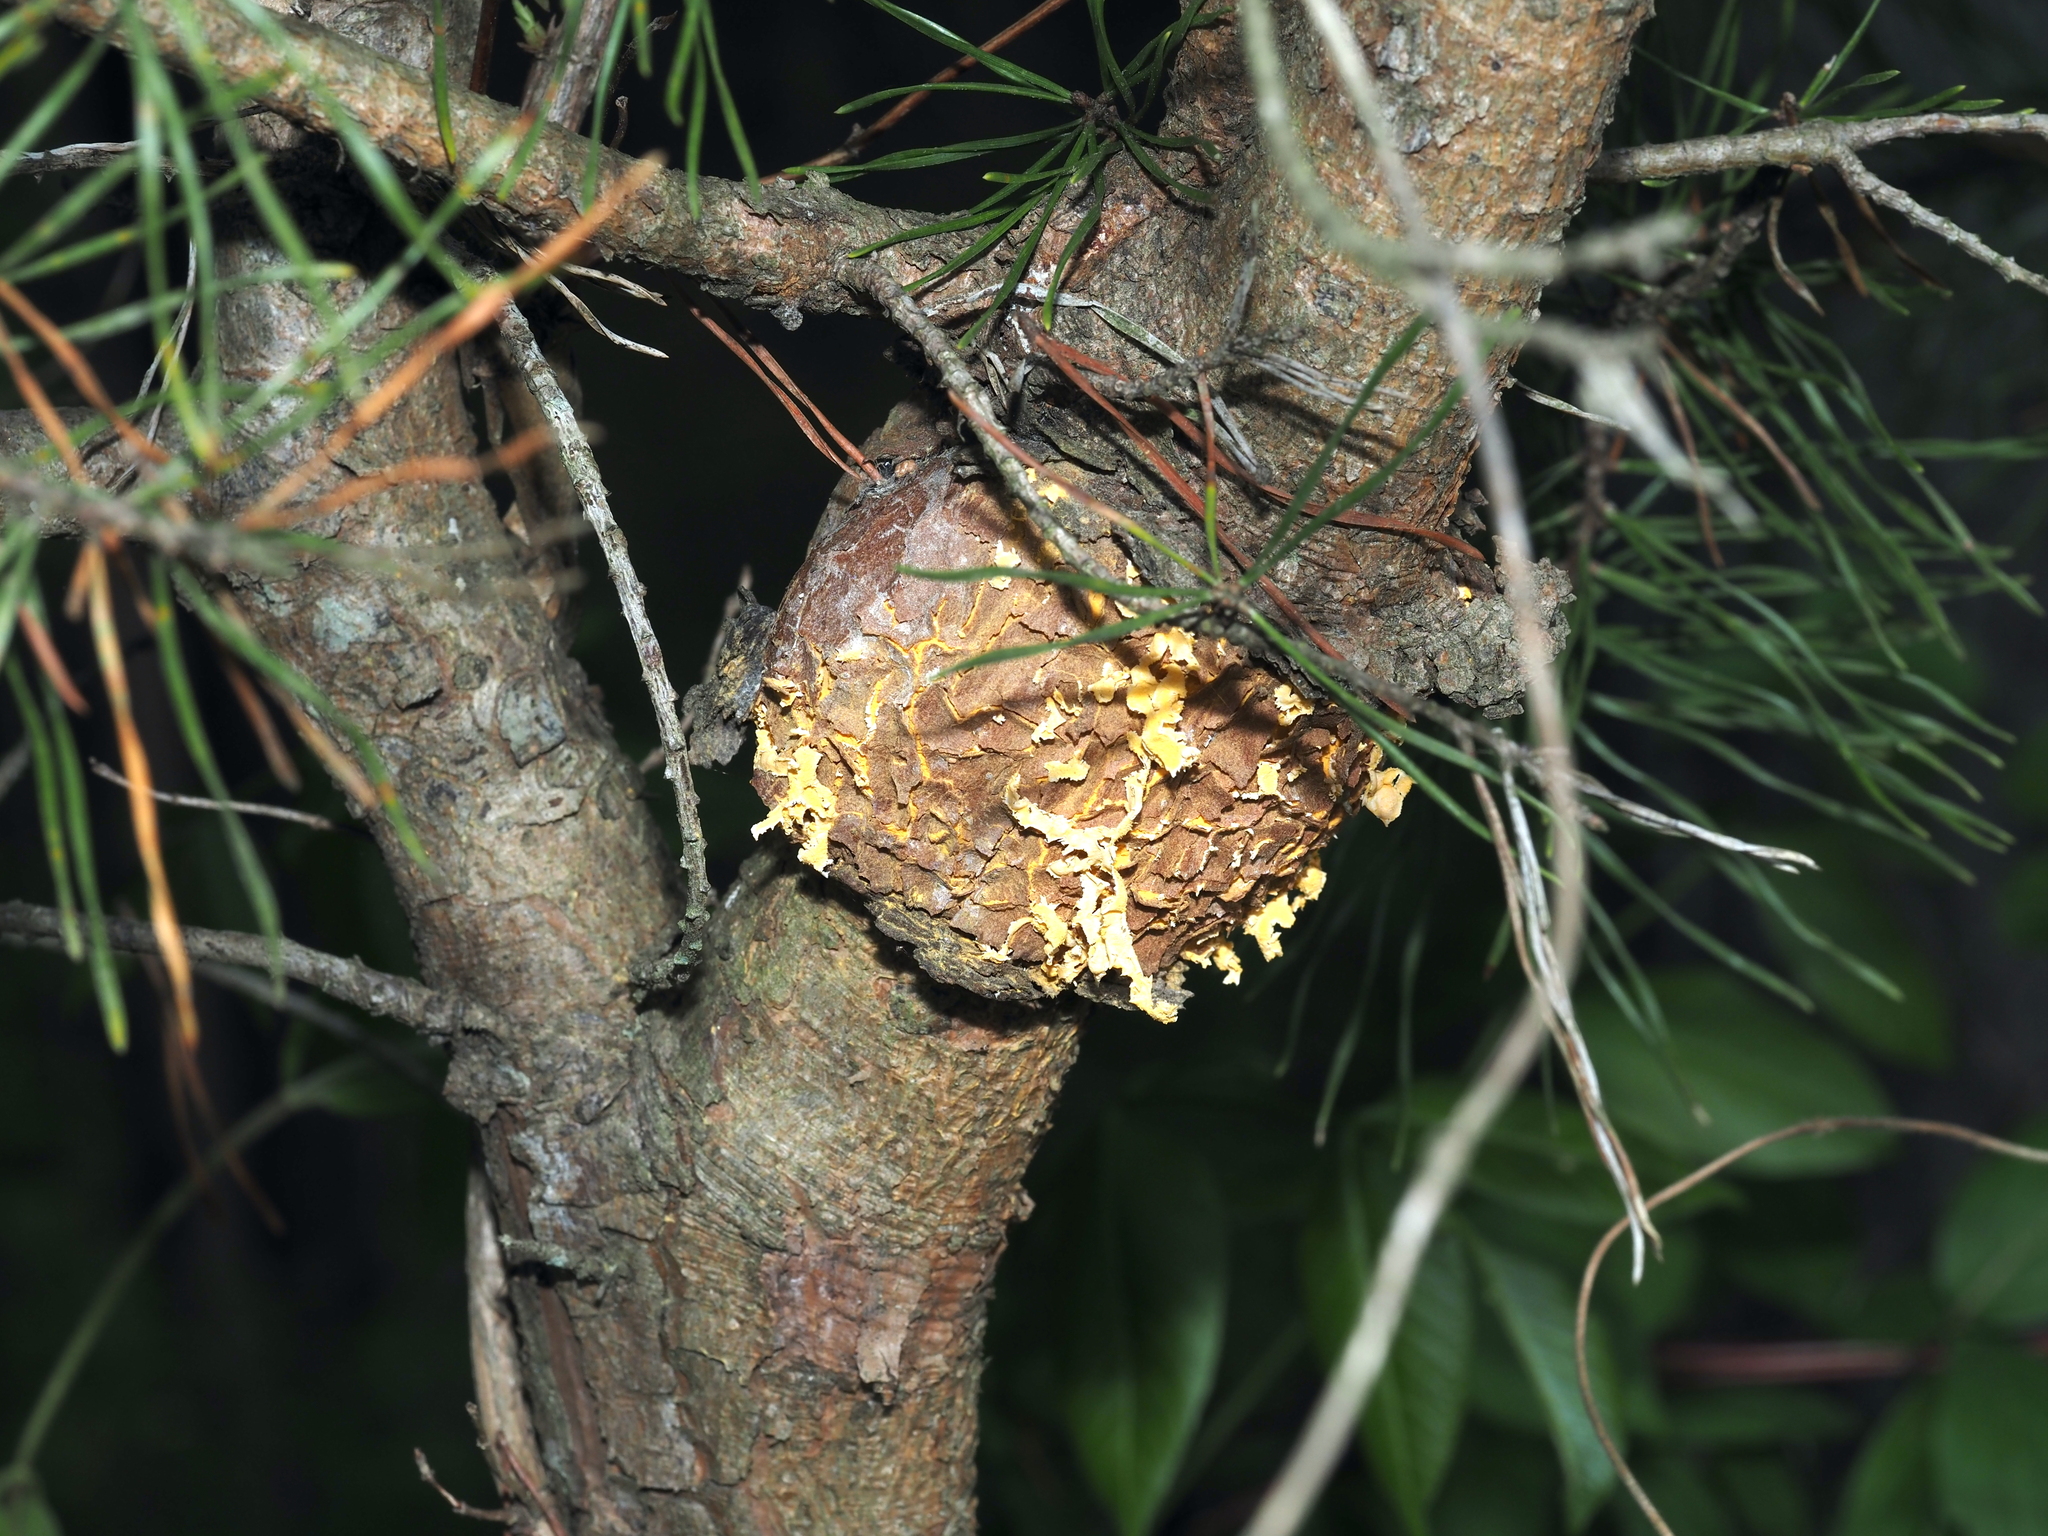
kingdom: Fungi
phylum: Basidiomycota
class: Pucciniomycetes
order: Pucciniales
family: Cronartiaceae
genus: Cronartium
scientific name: Cronartium quercuum
